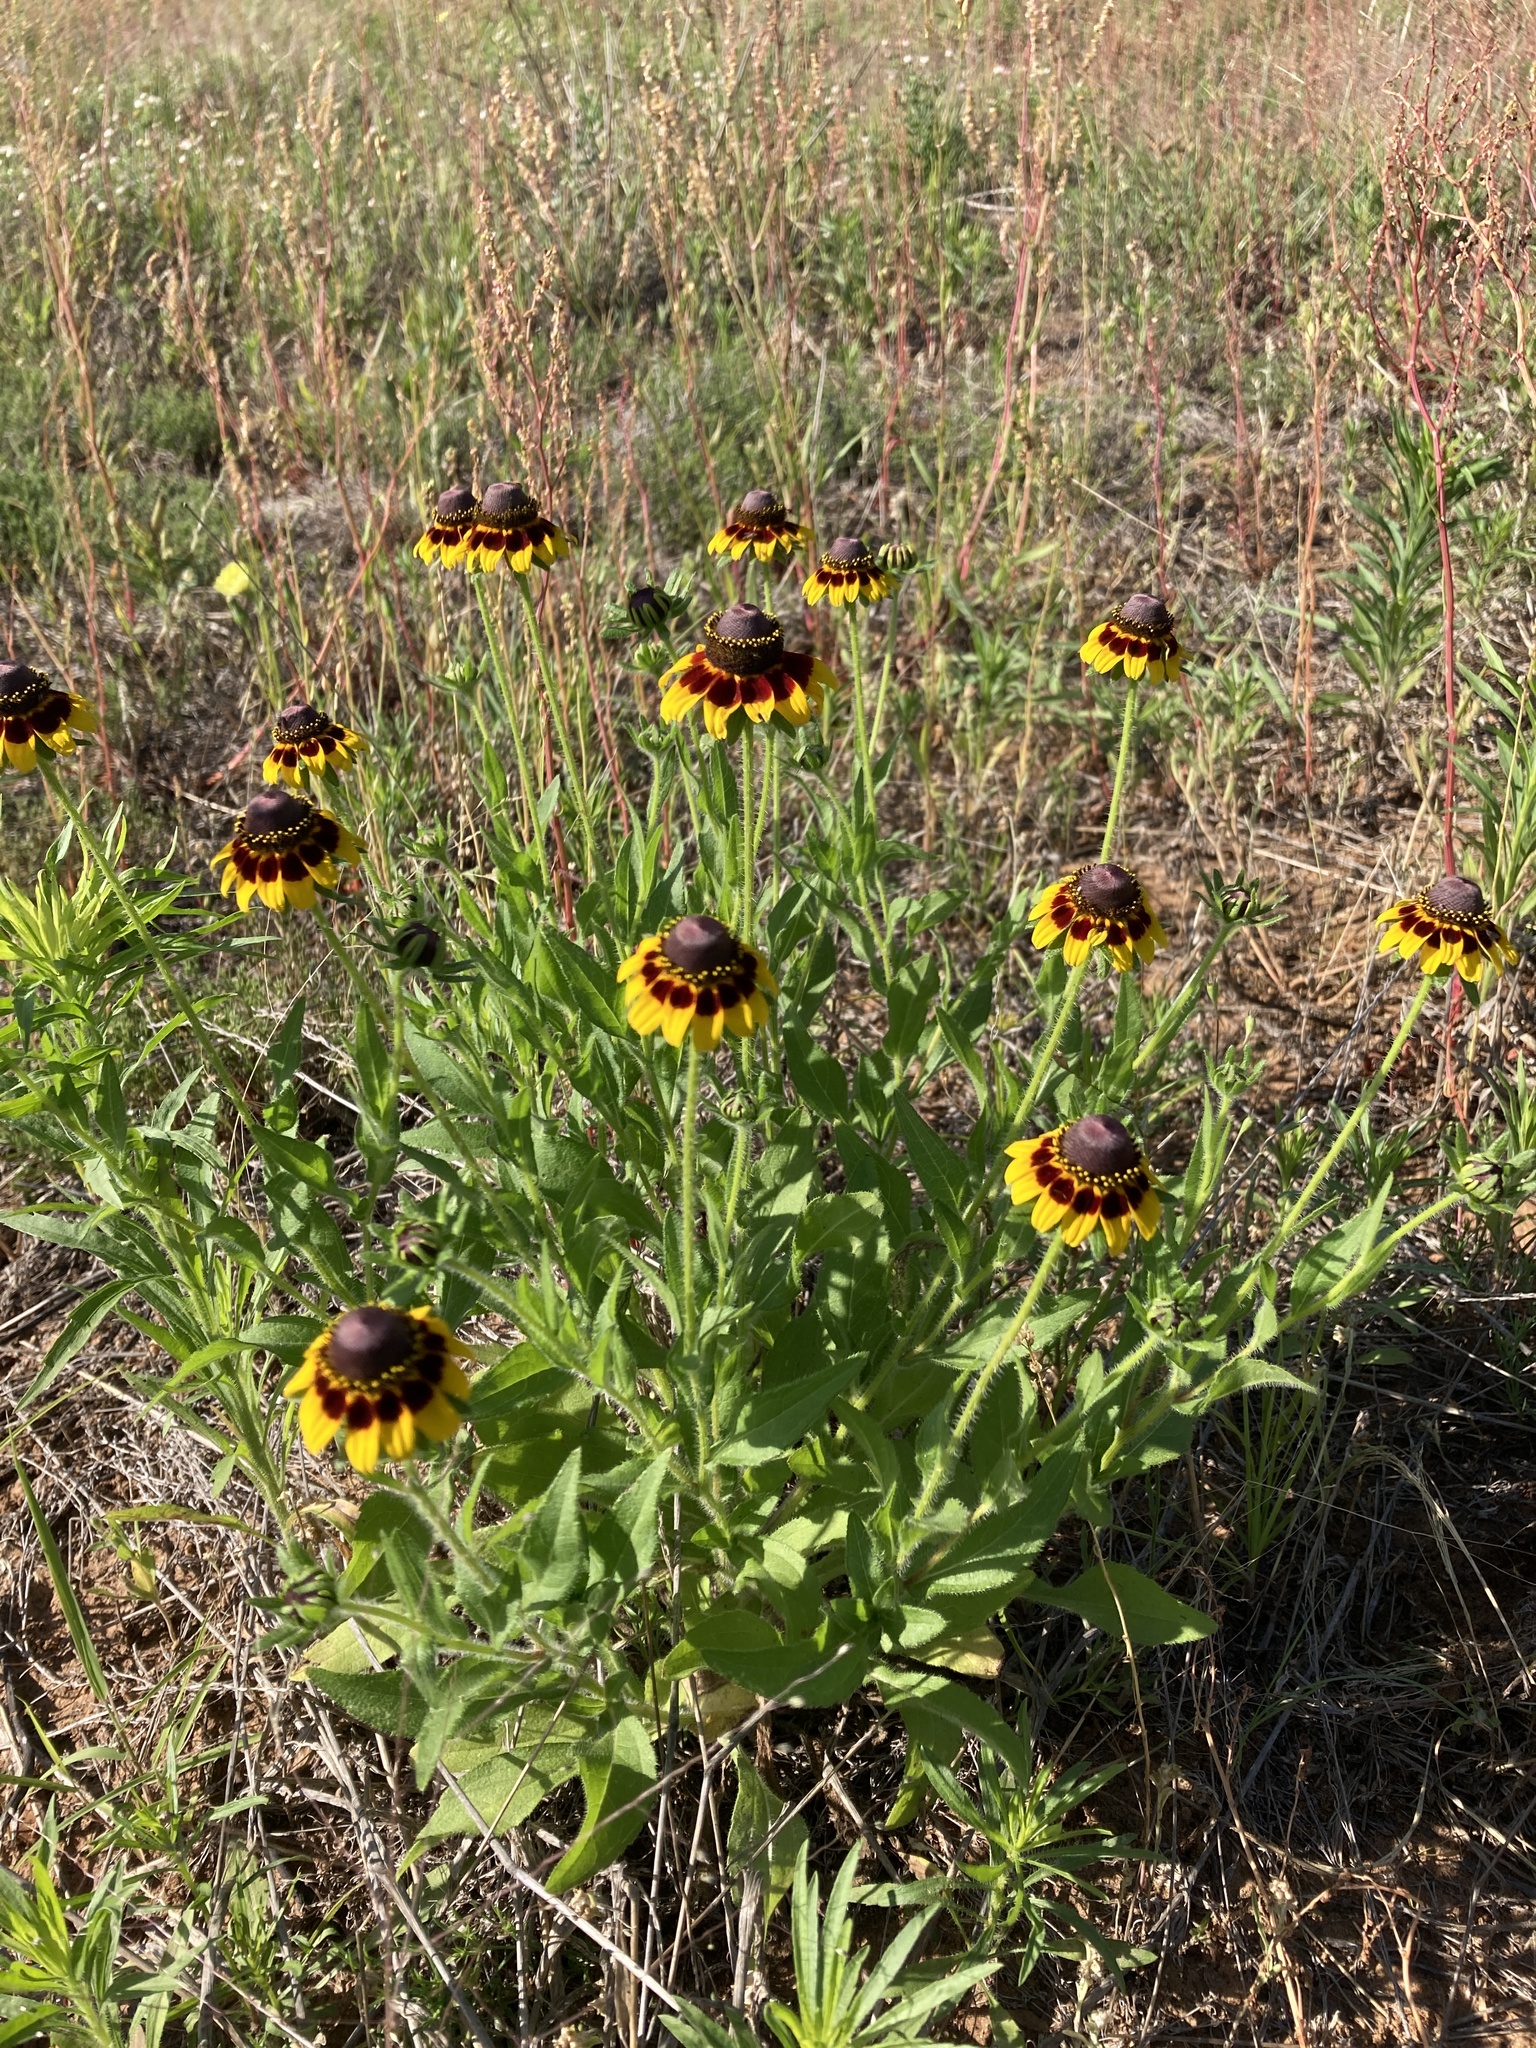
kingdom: Plantae
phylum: Tracheophyta
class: Magnoliopsida
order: Asterales
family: Asteraceae
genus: Rudbeckia
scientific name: Rudbeckia hirta
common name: Black-eyed-susan
